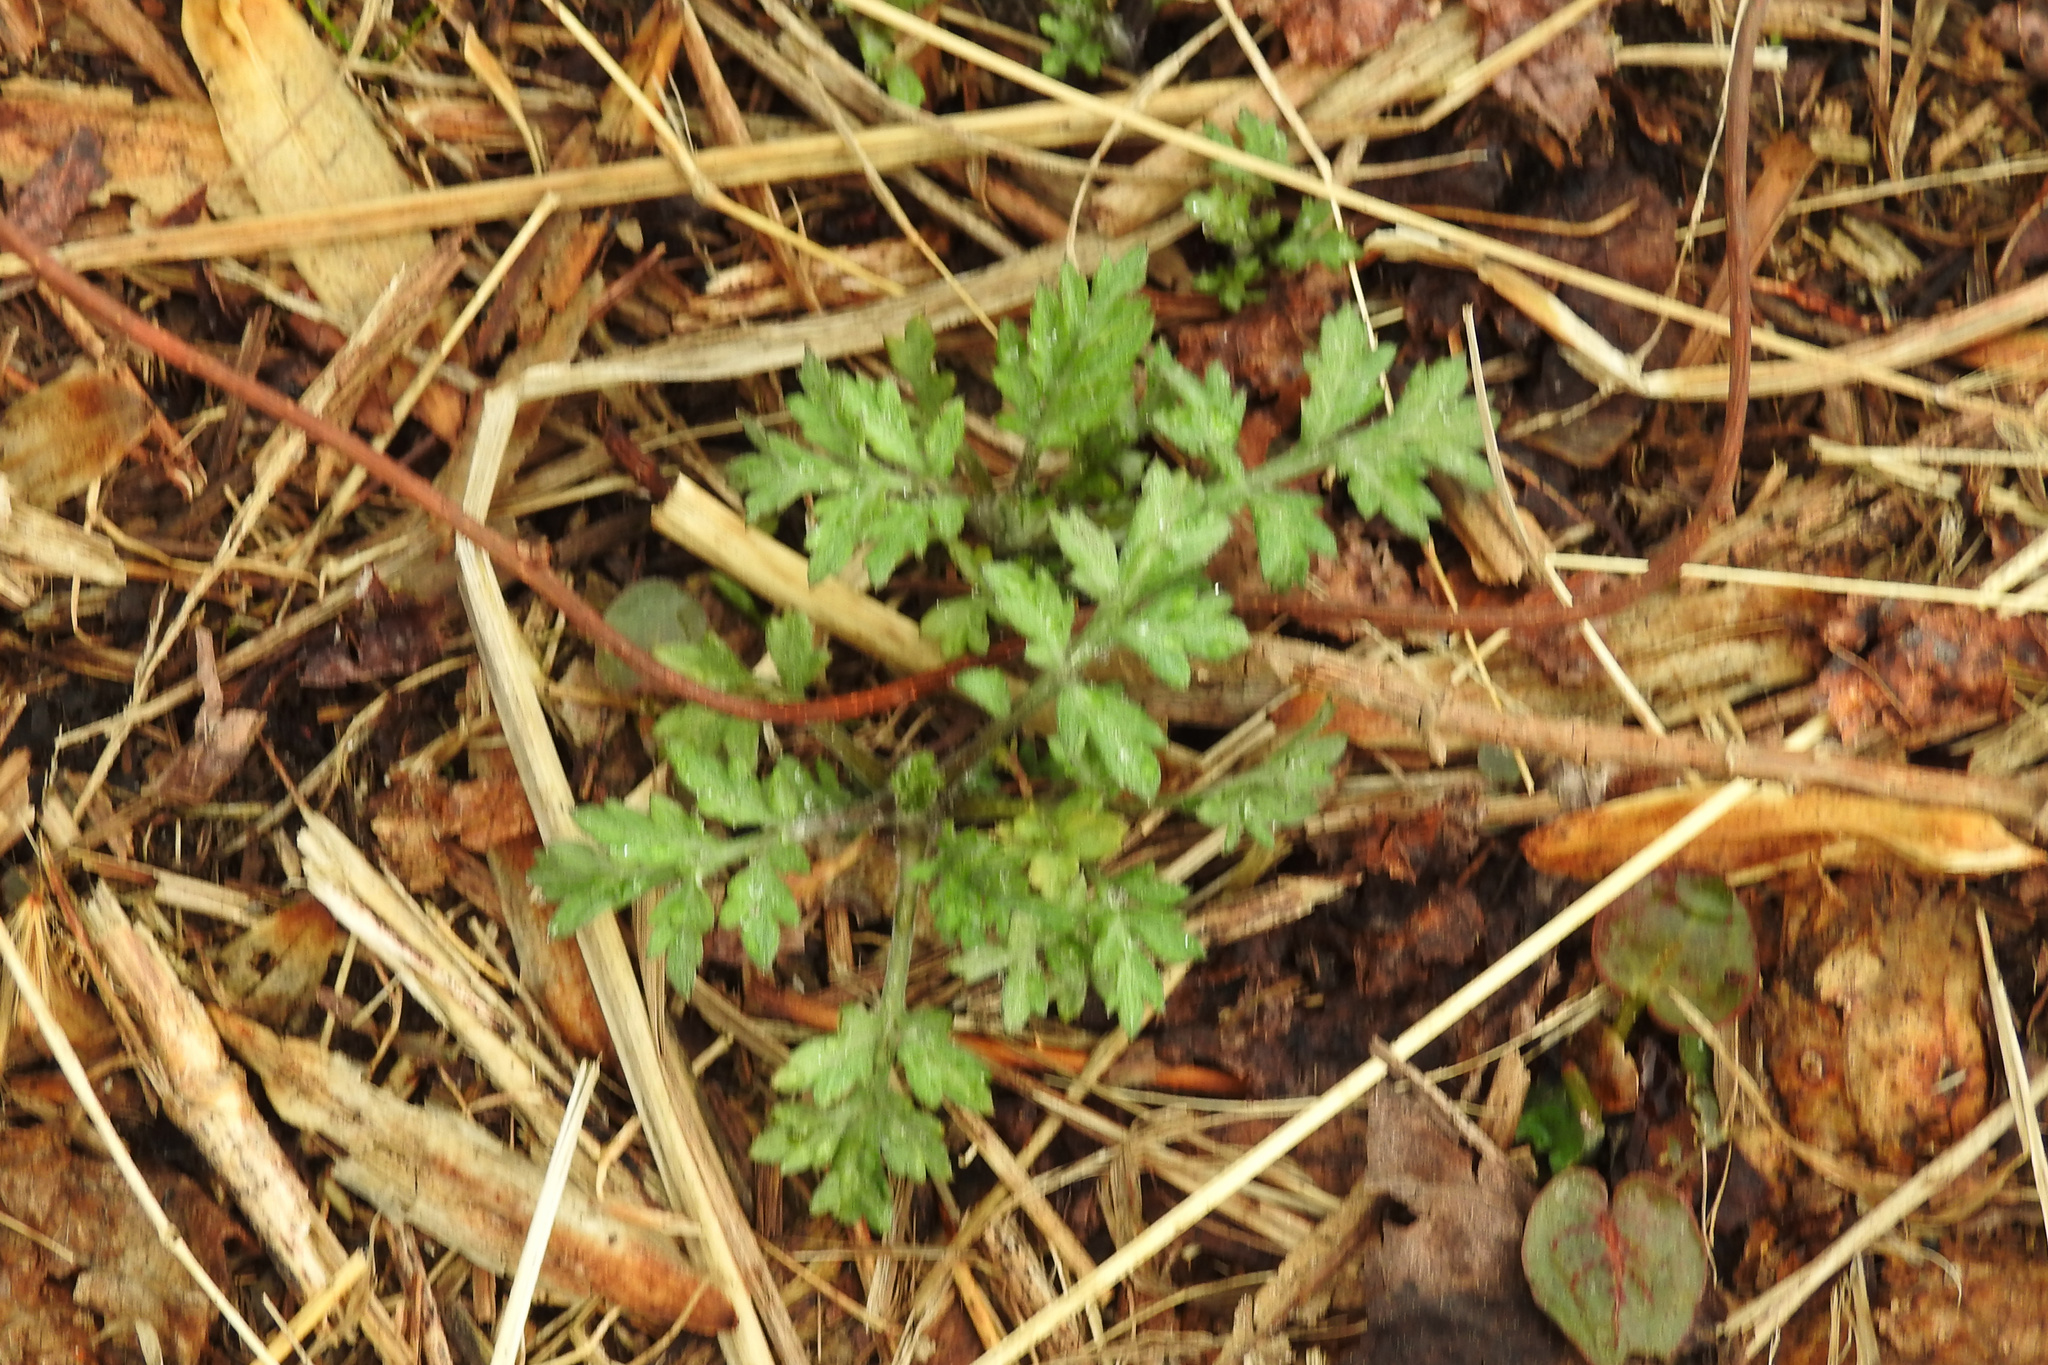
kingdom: Plantae
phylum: Tracheophyta
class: Magnoliopsida
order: Asterales
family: Asteraceae
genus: Artemisia
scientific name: Artemisia vulgaris
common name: Mugwort
